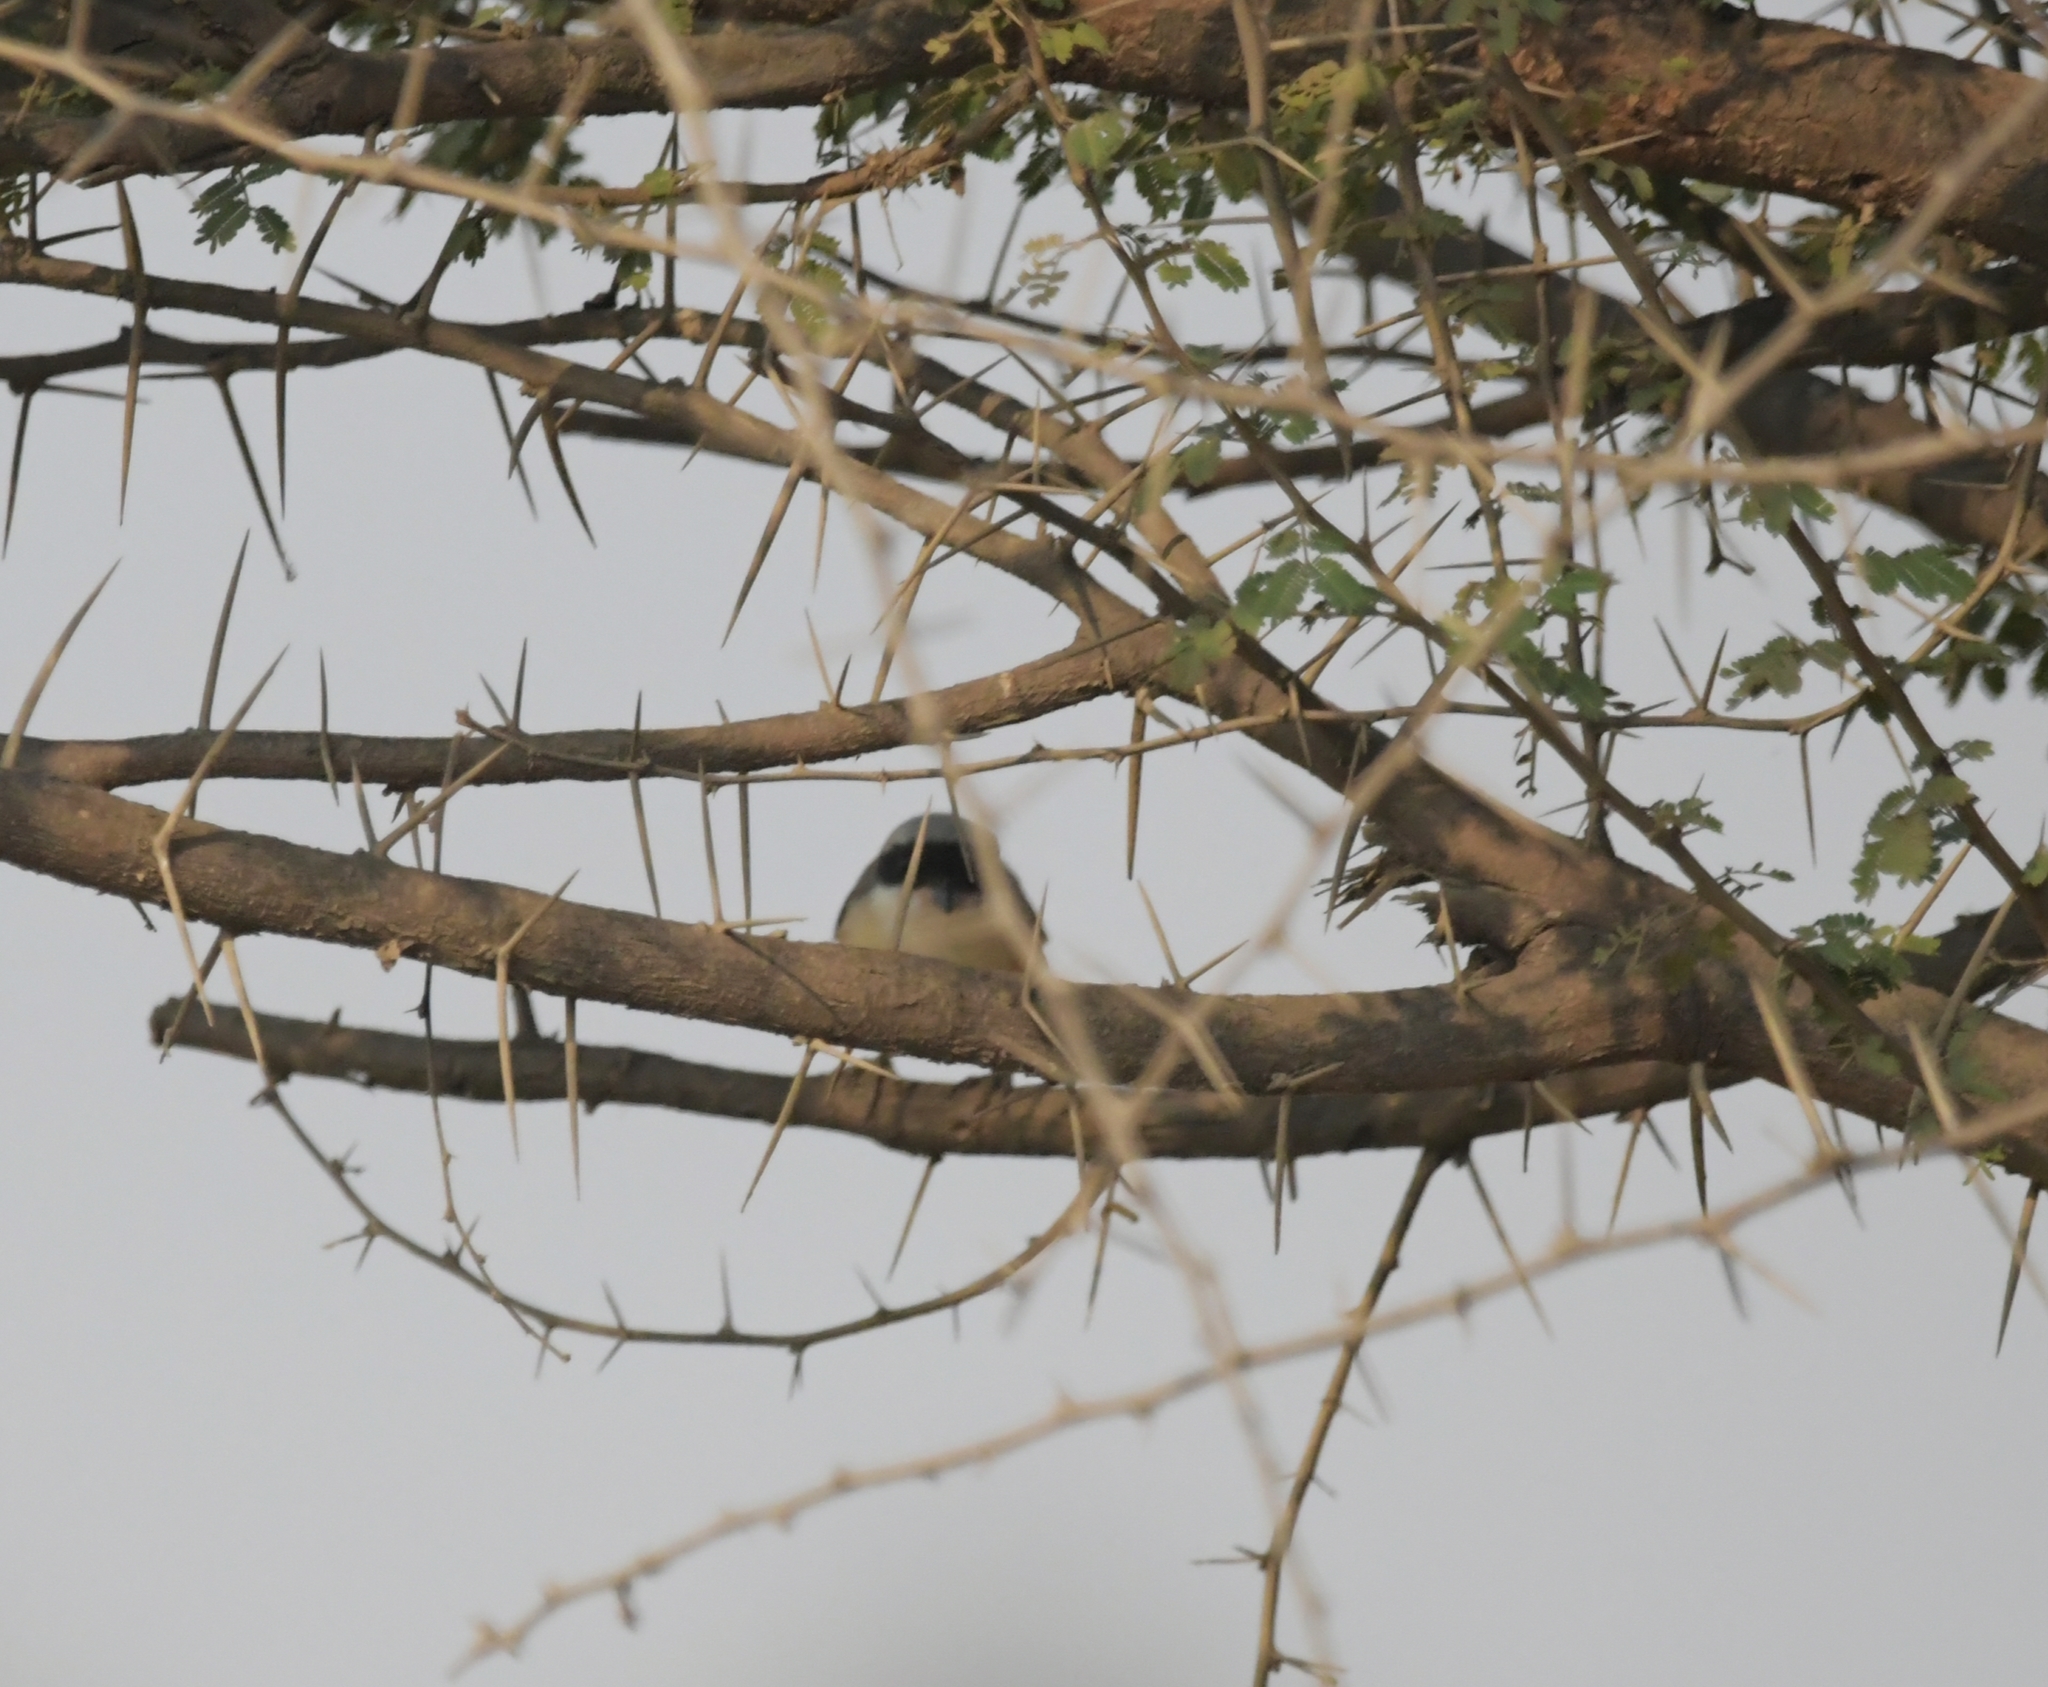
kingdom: Animalia
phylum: Chordata
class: Aves
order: Passeriformes
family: Laniidae
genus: Lanius
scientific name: Lanius vittatus
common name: Bay-backed shrike
